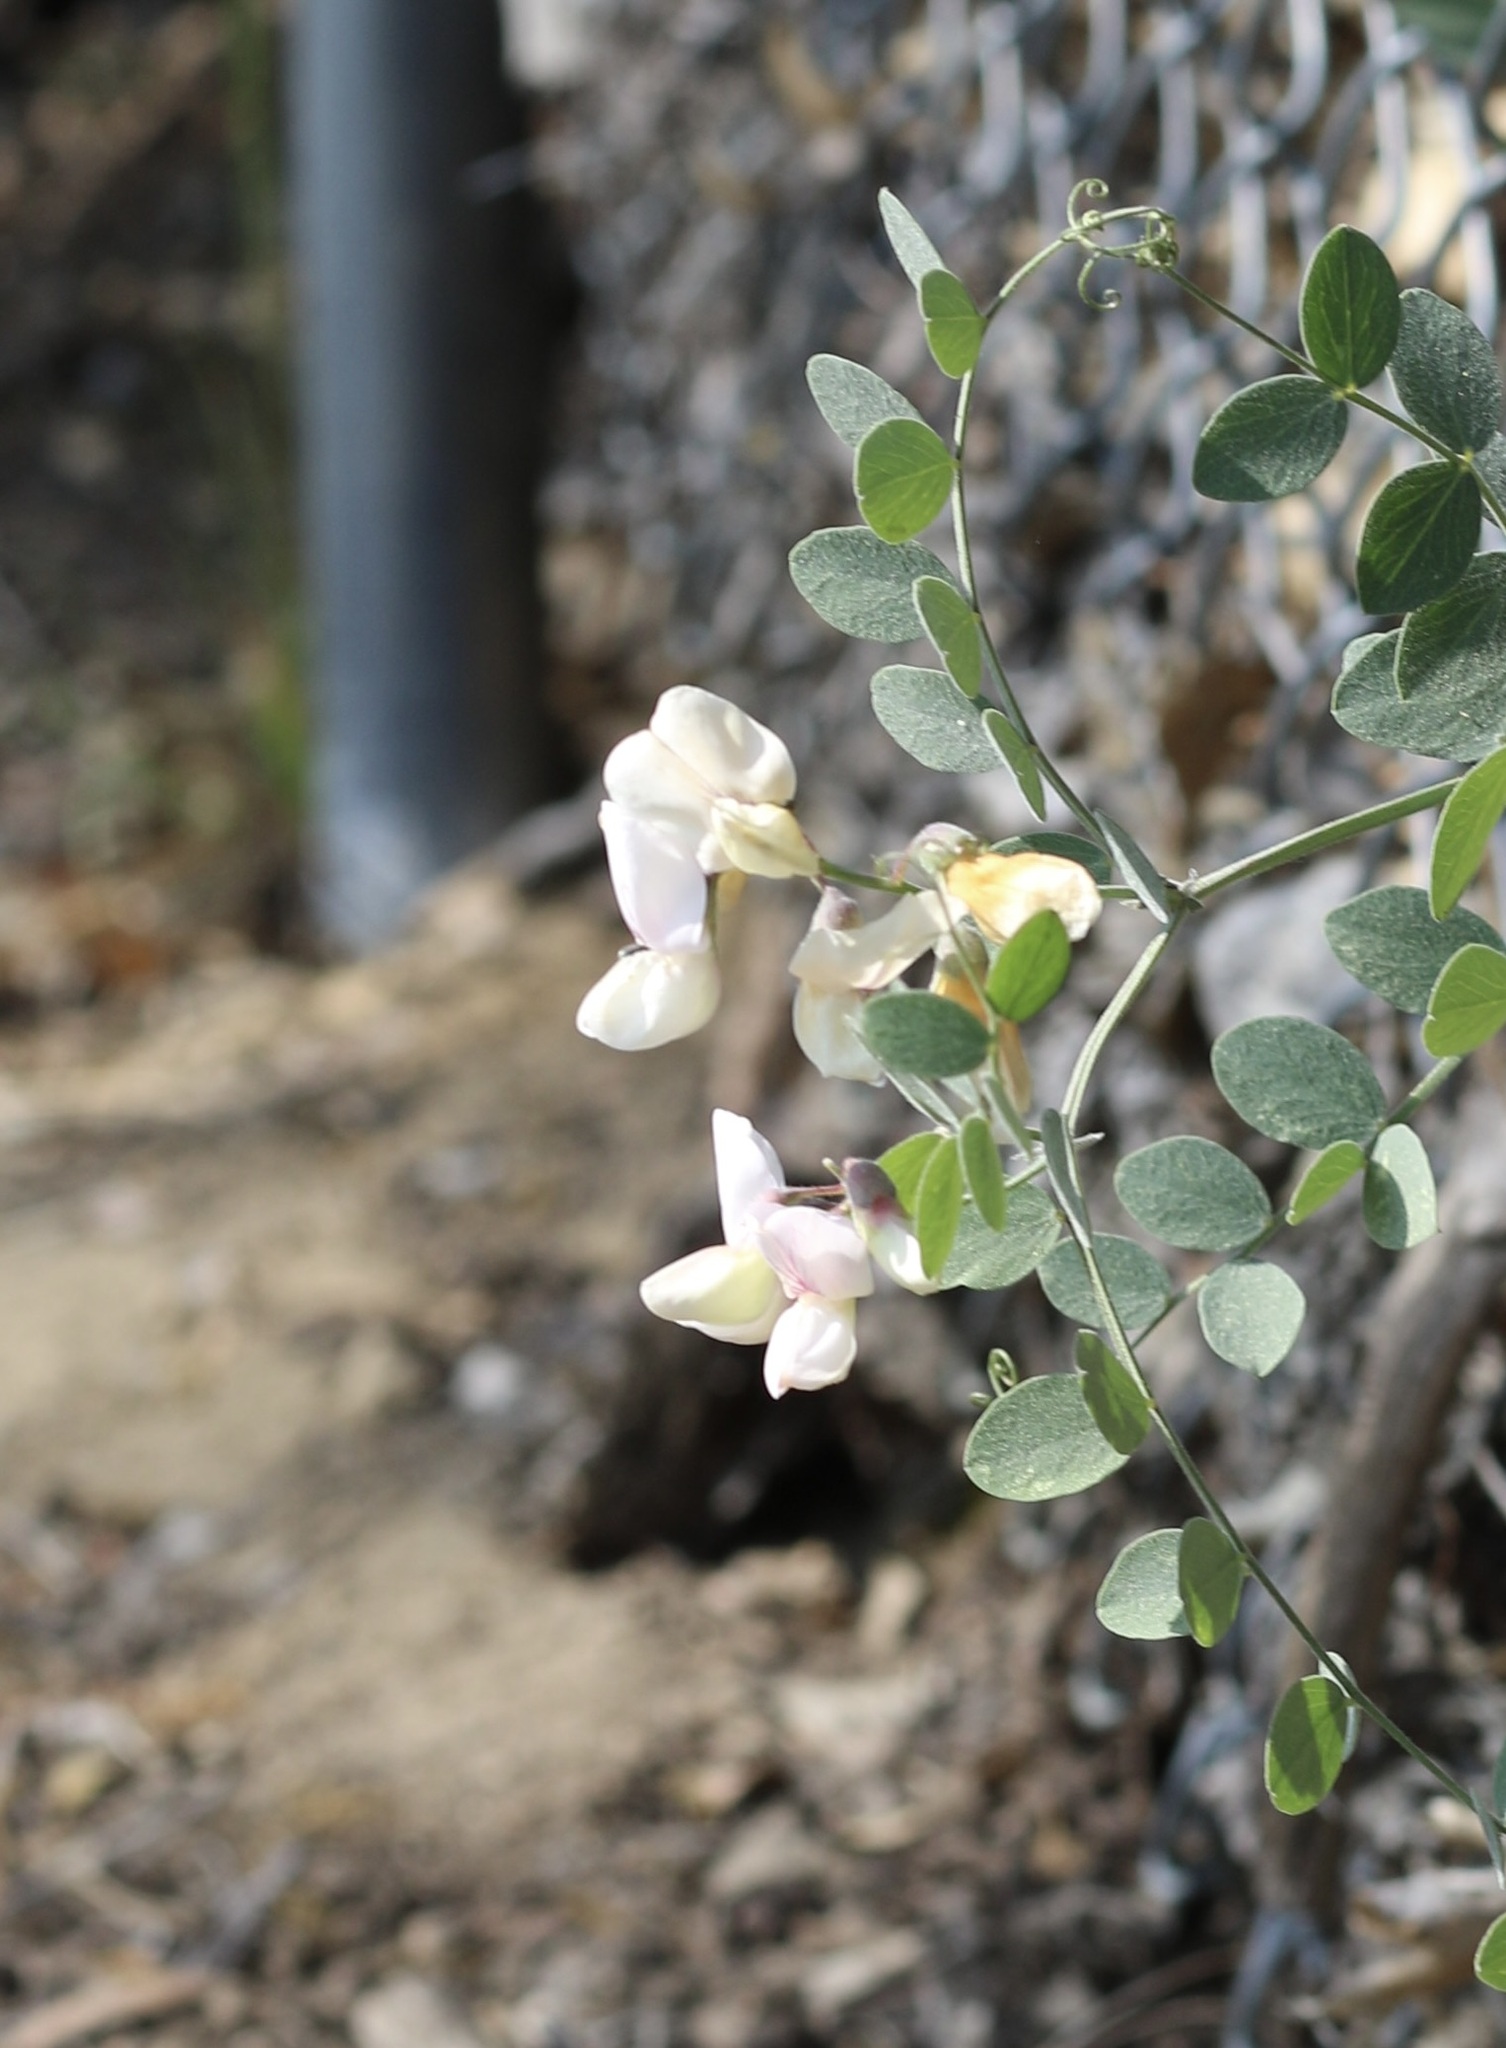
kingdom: Plantae
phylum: Tracheophyta
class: Magnoliopsida
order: Fabales
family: Fabaceae
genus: Lathyrus
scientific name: Lathyrus vestitus
